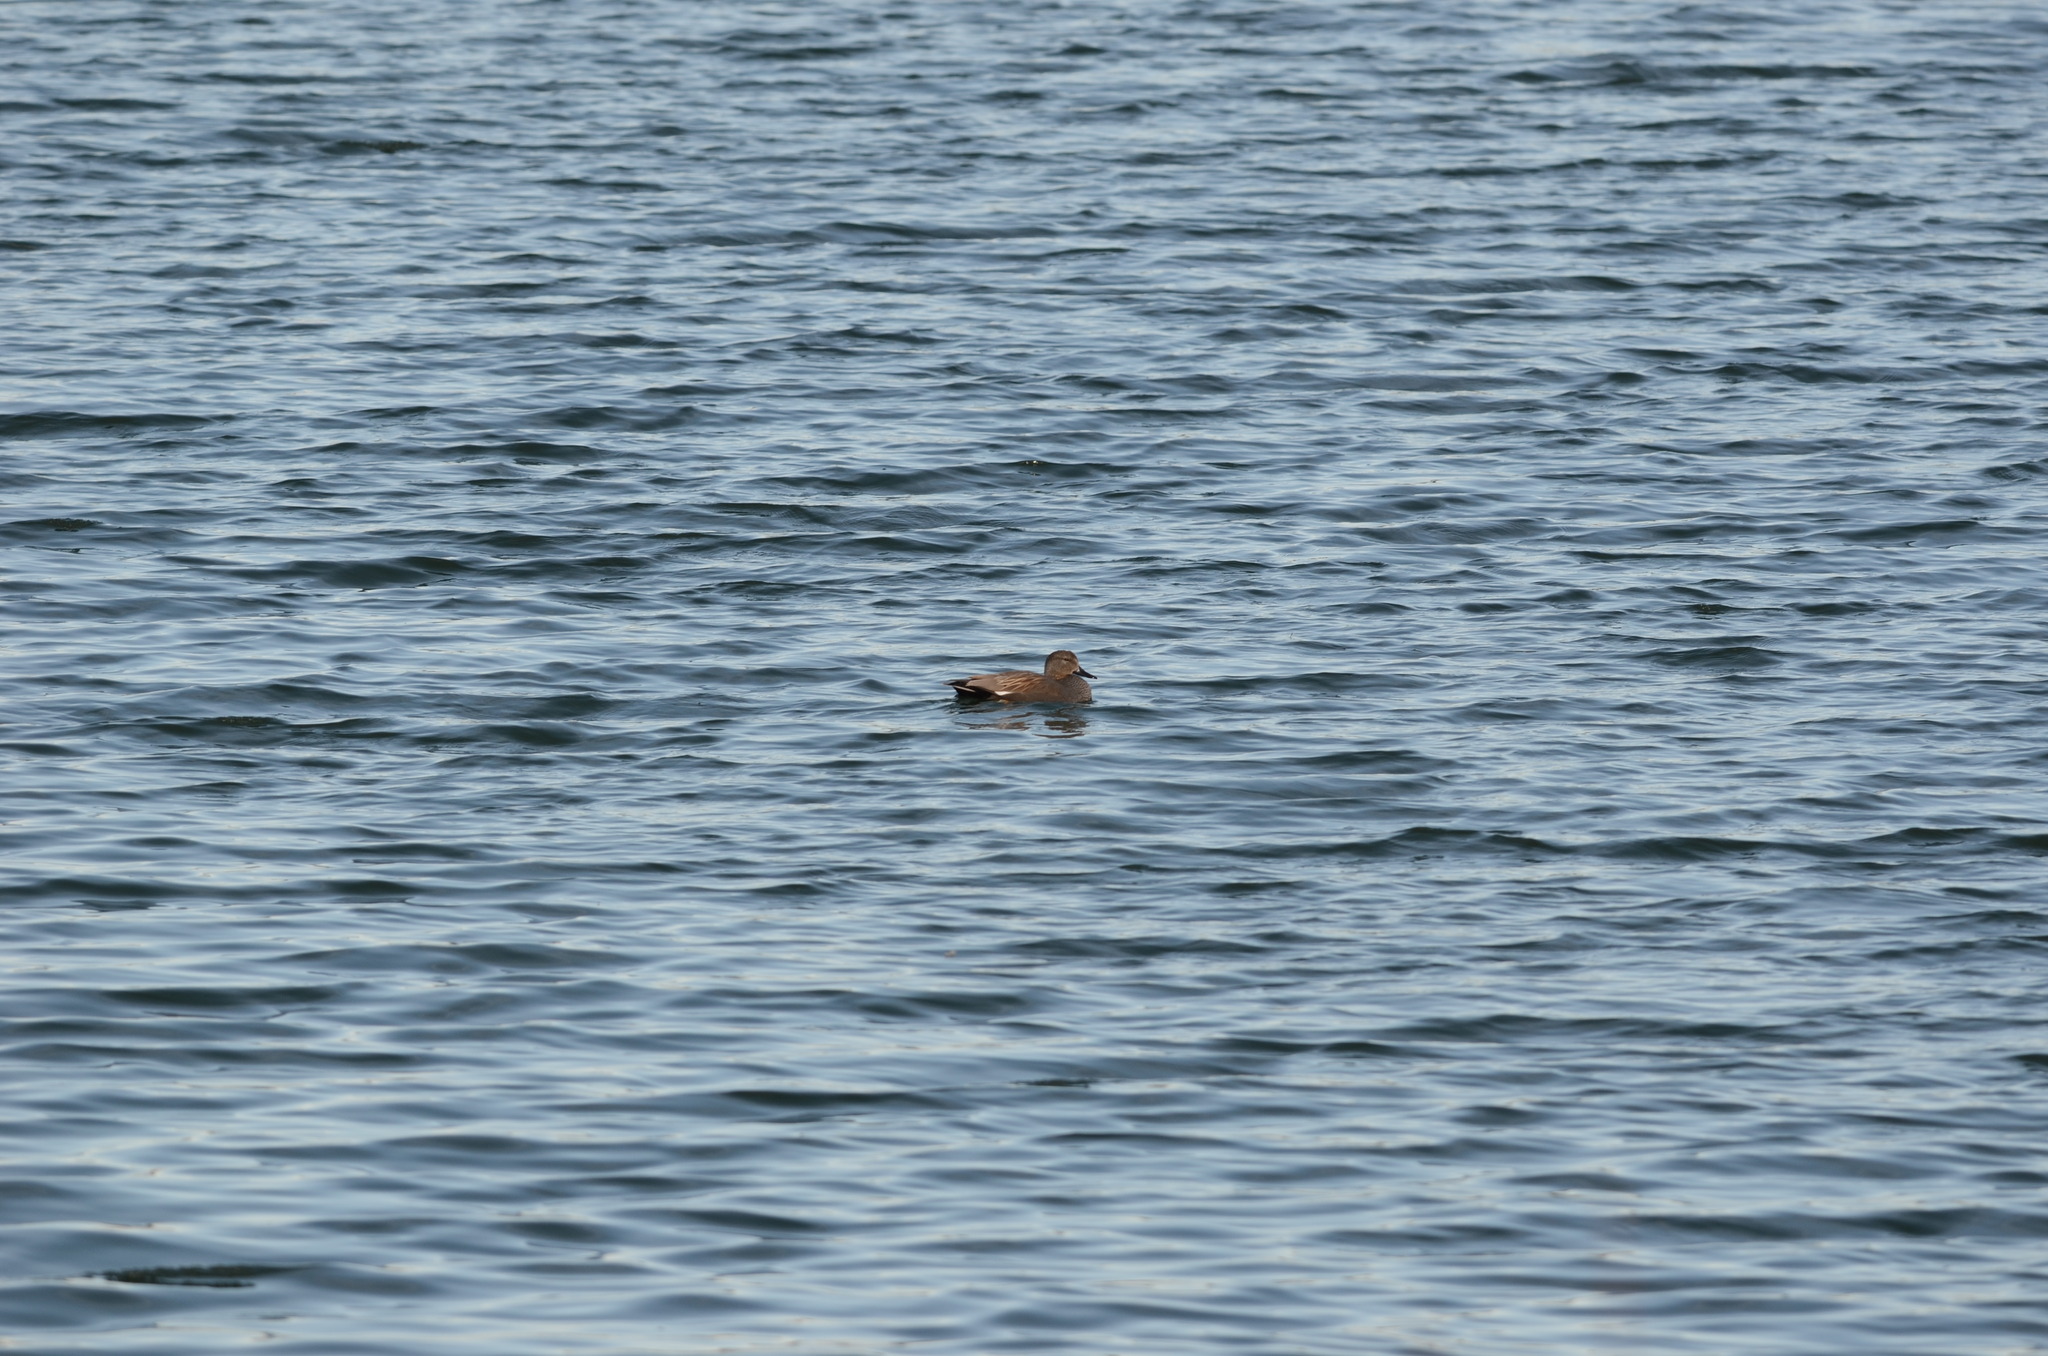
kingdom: Animalia
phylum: Chordata
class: Aves
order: Anseriformes
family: Anatidae
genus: Mareca
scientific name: Mareca strepera
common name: Gadwall
